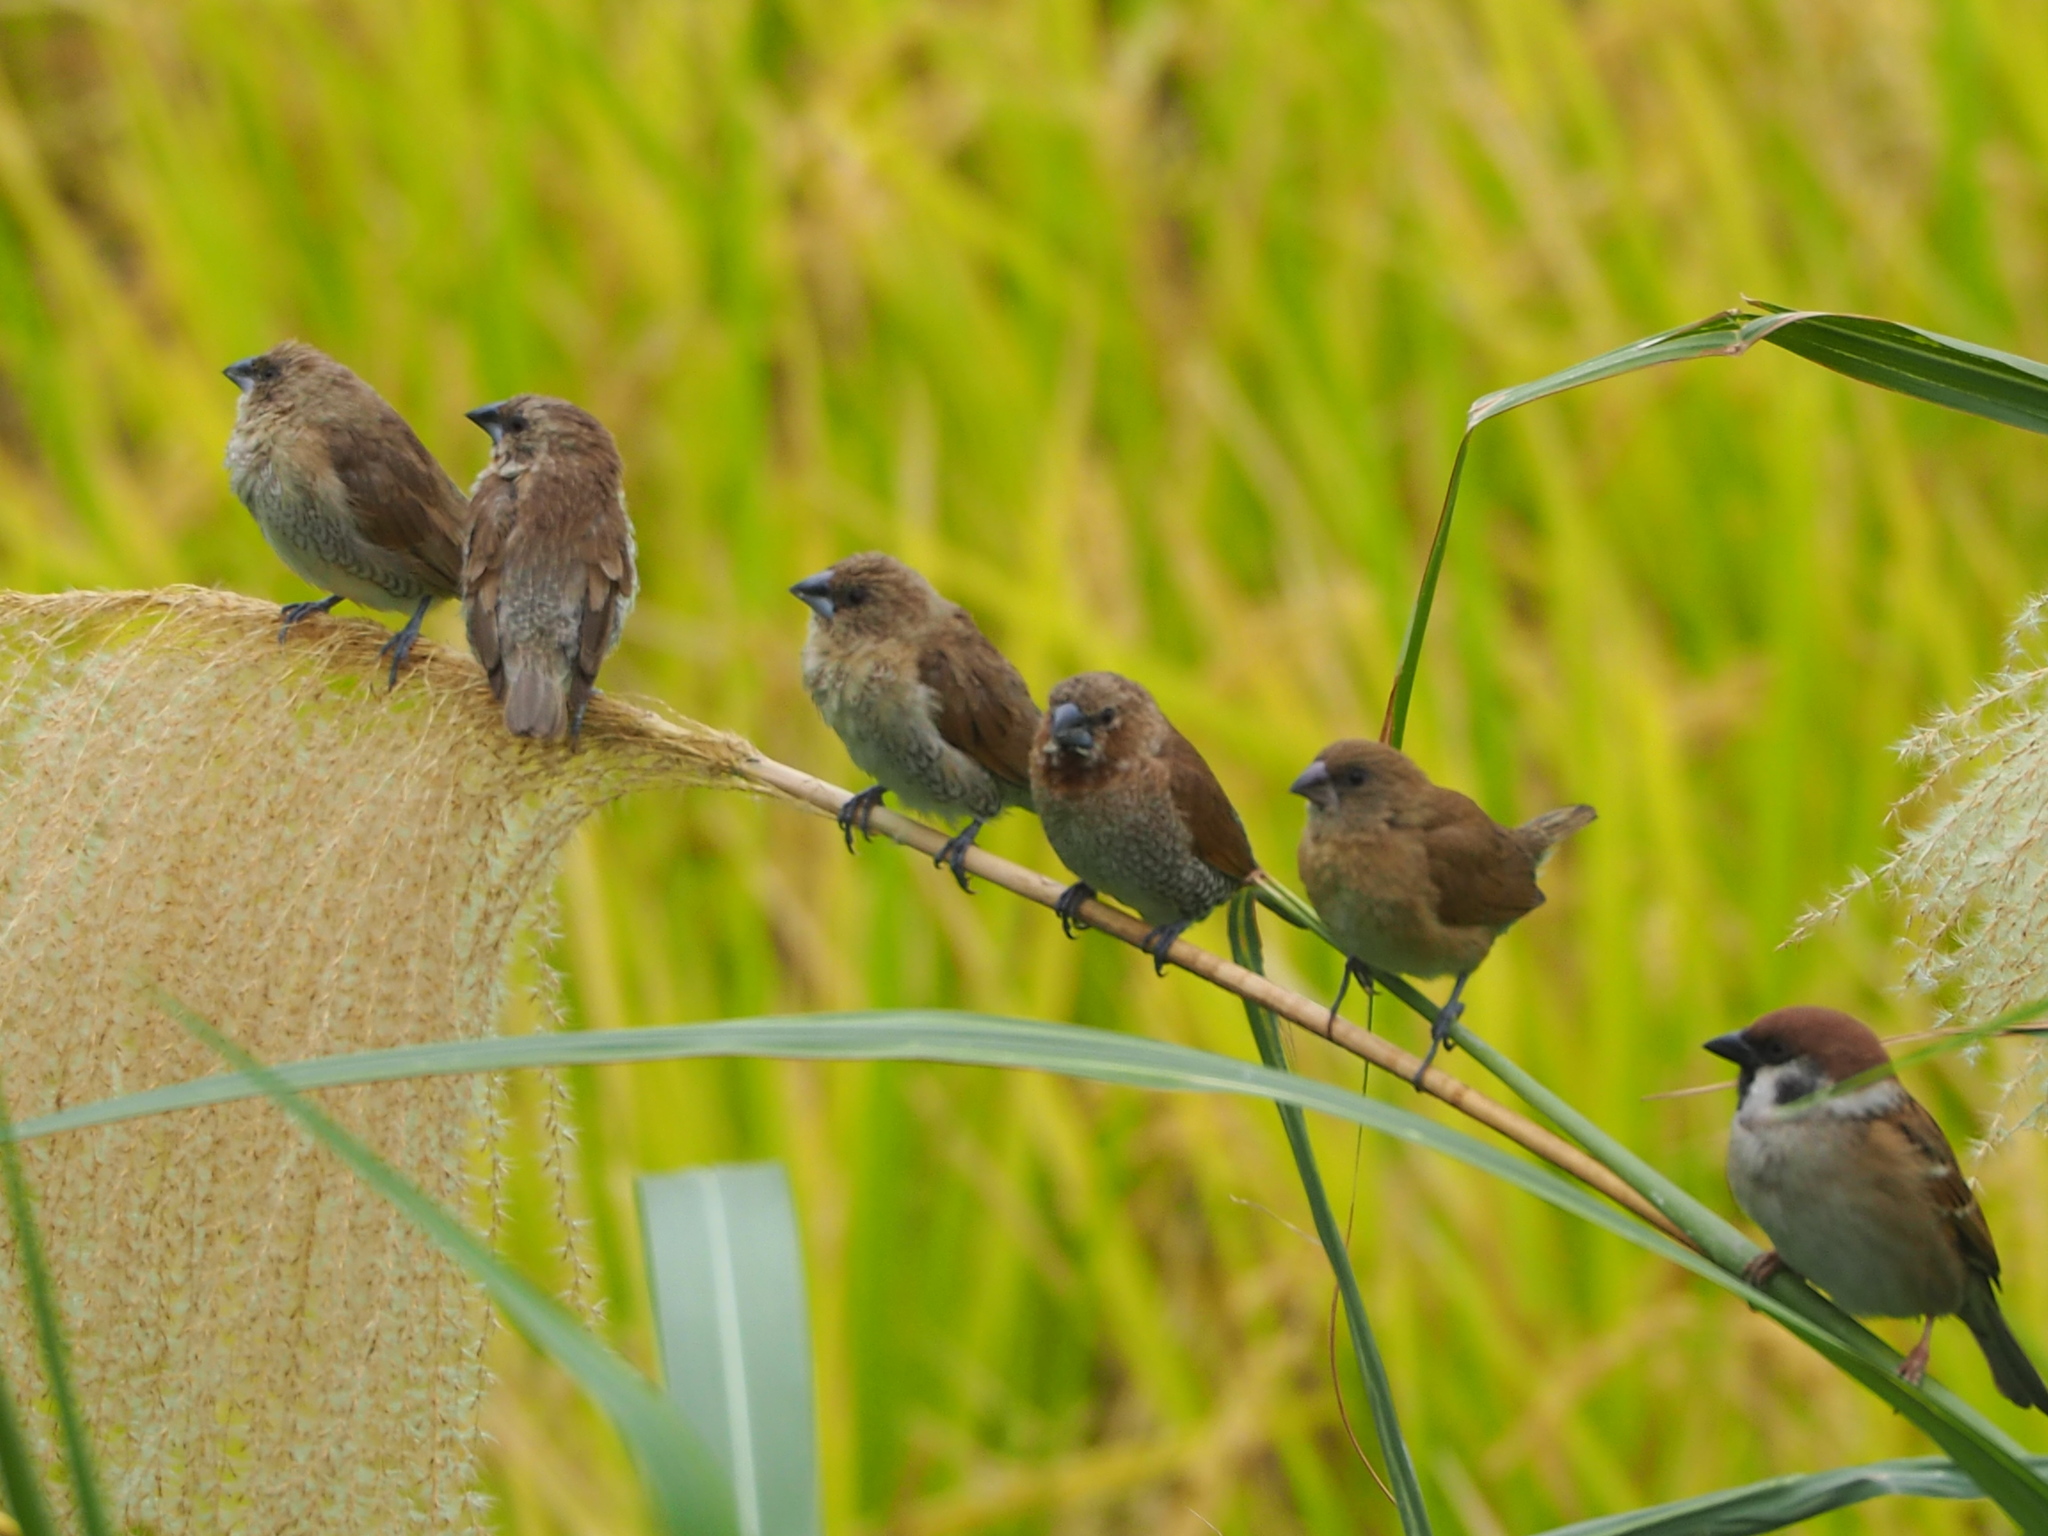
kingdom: Animalia
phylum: Chordata
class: Aves
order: Passeriformes
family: Estrildidae
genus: Lonchura
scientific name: Lonchura punctulata
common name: Scaly-breasted munia
